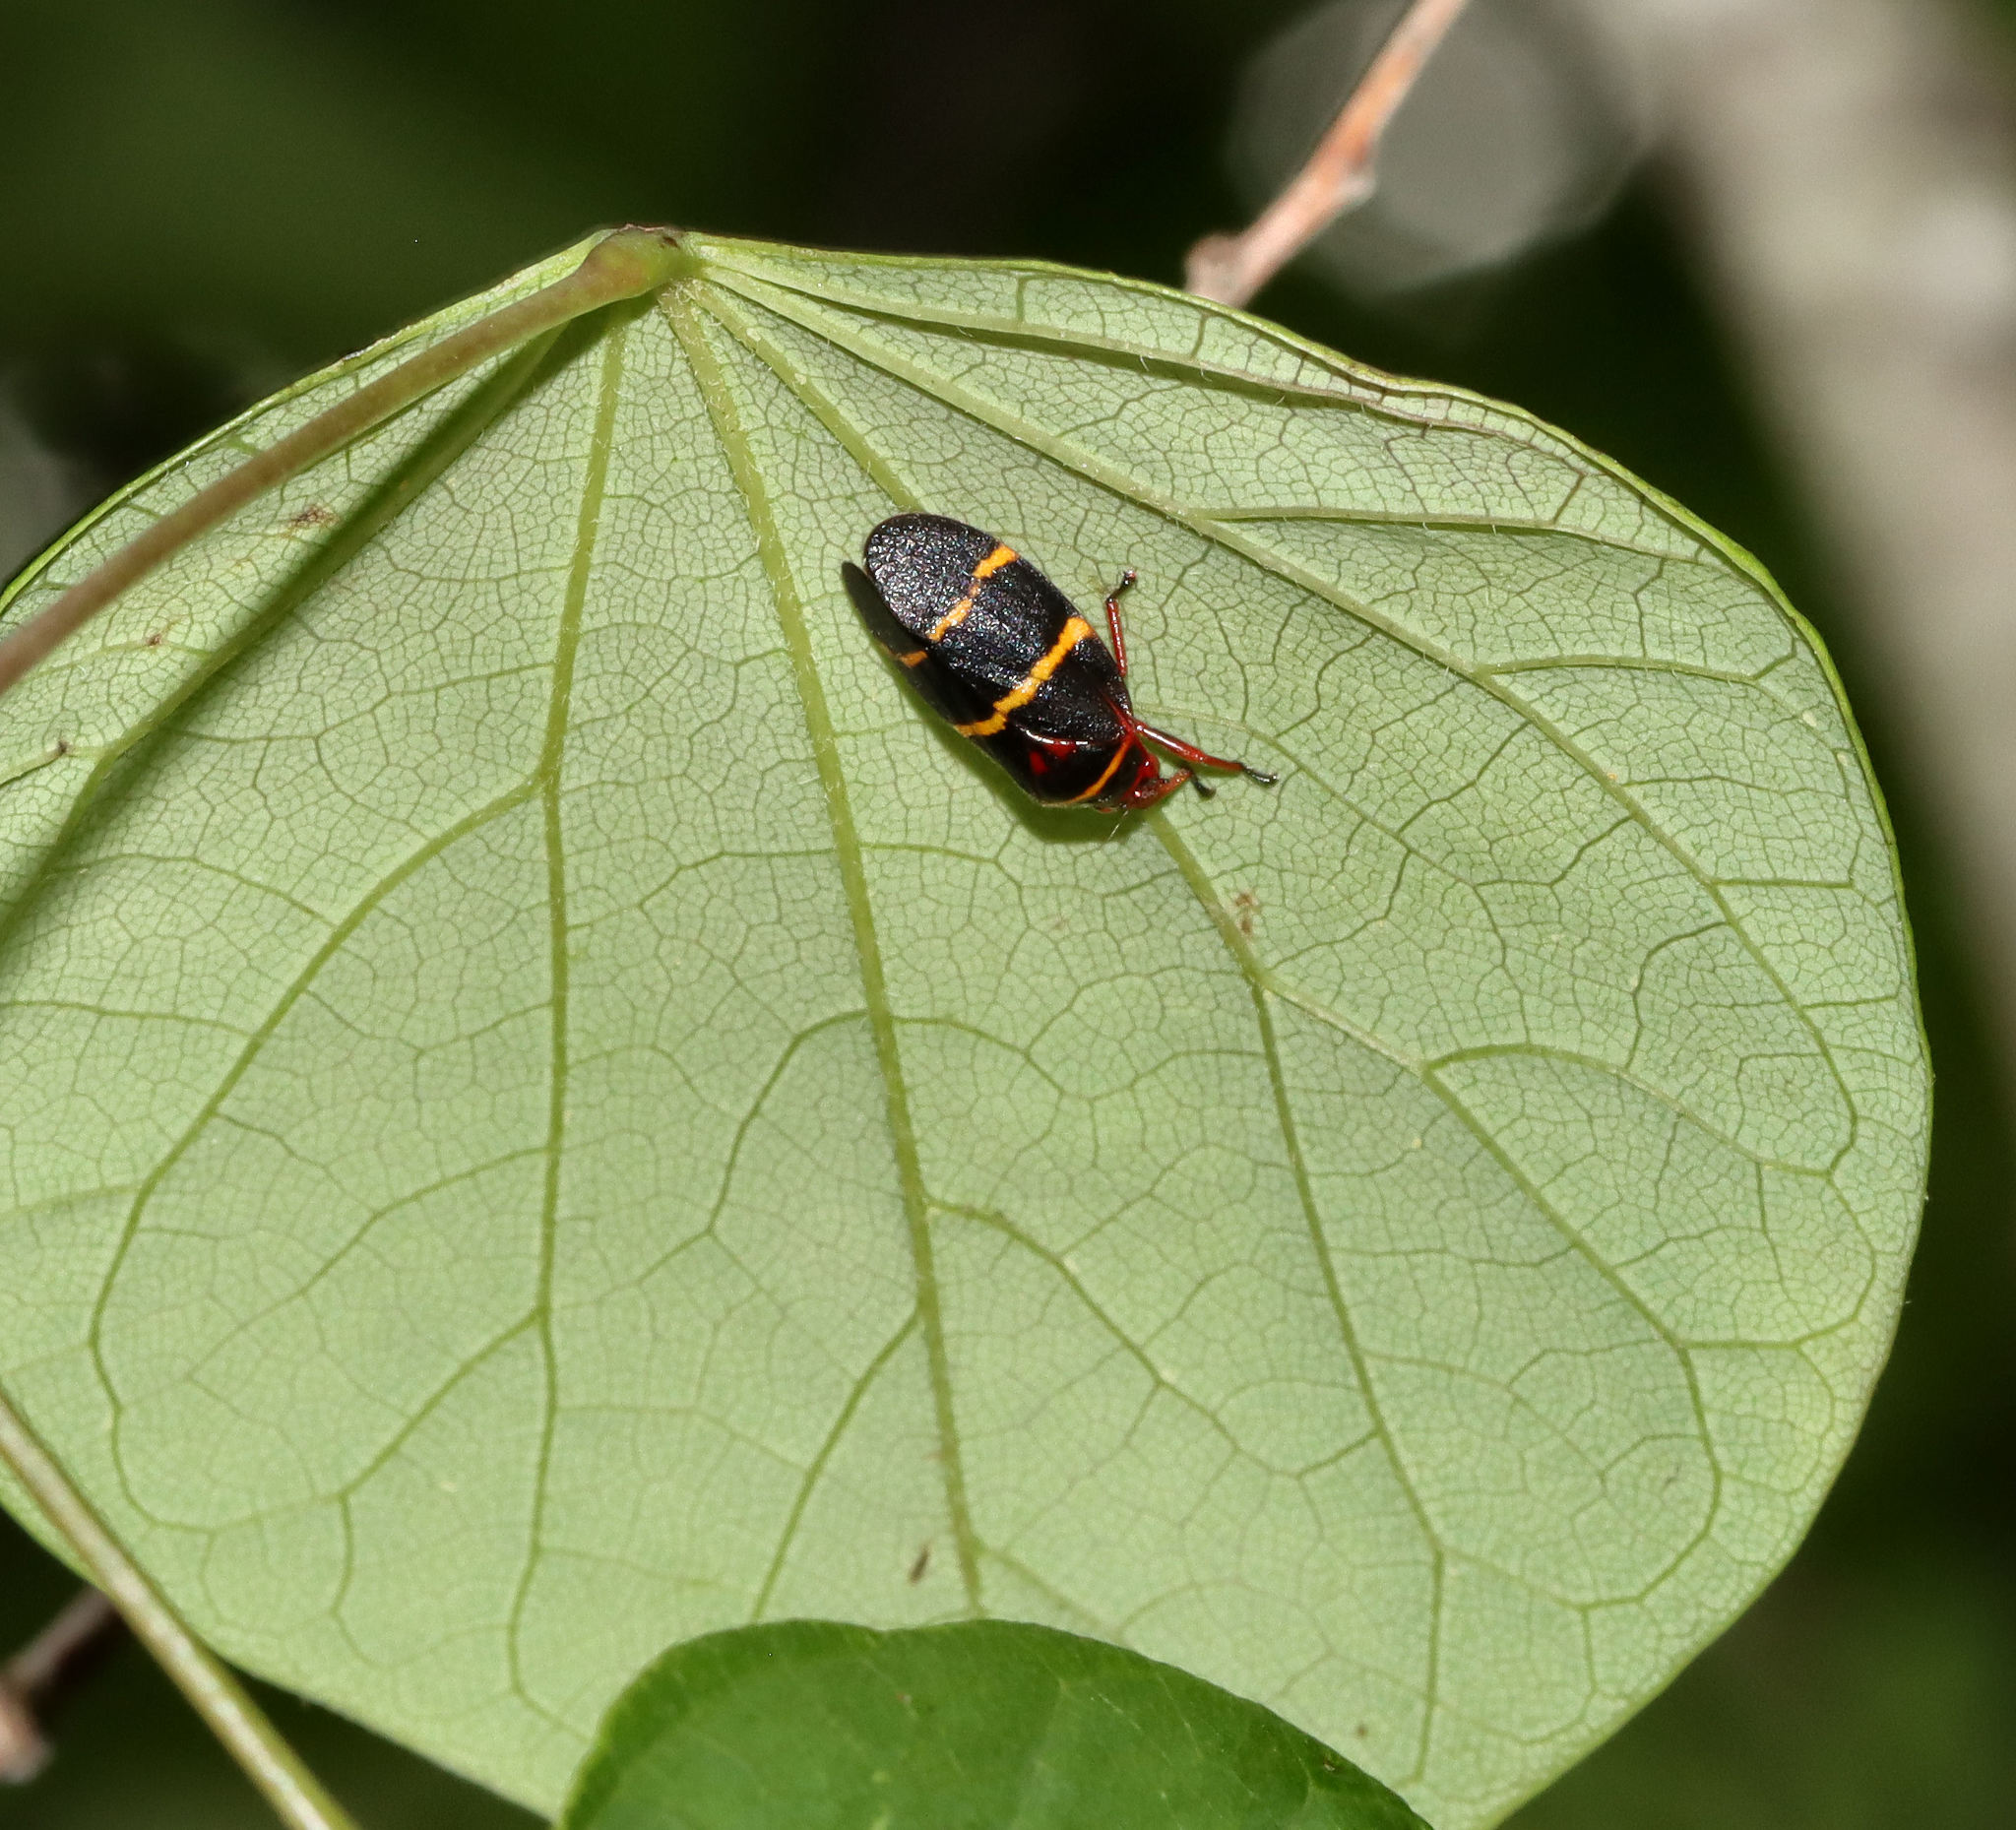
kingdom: Animalia
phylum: Arthropoda
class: Insecta
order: Hemiptera
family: Cercopidae
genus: Prosapia
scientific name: Prosapia bicincta
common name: Twolined spittlebug
